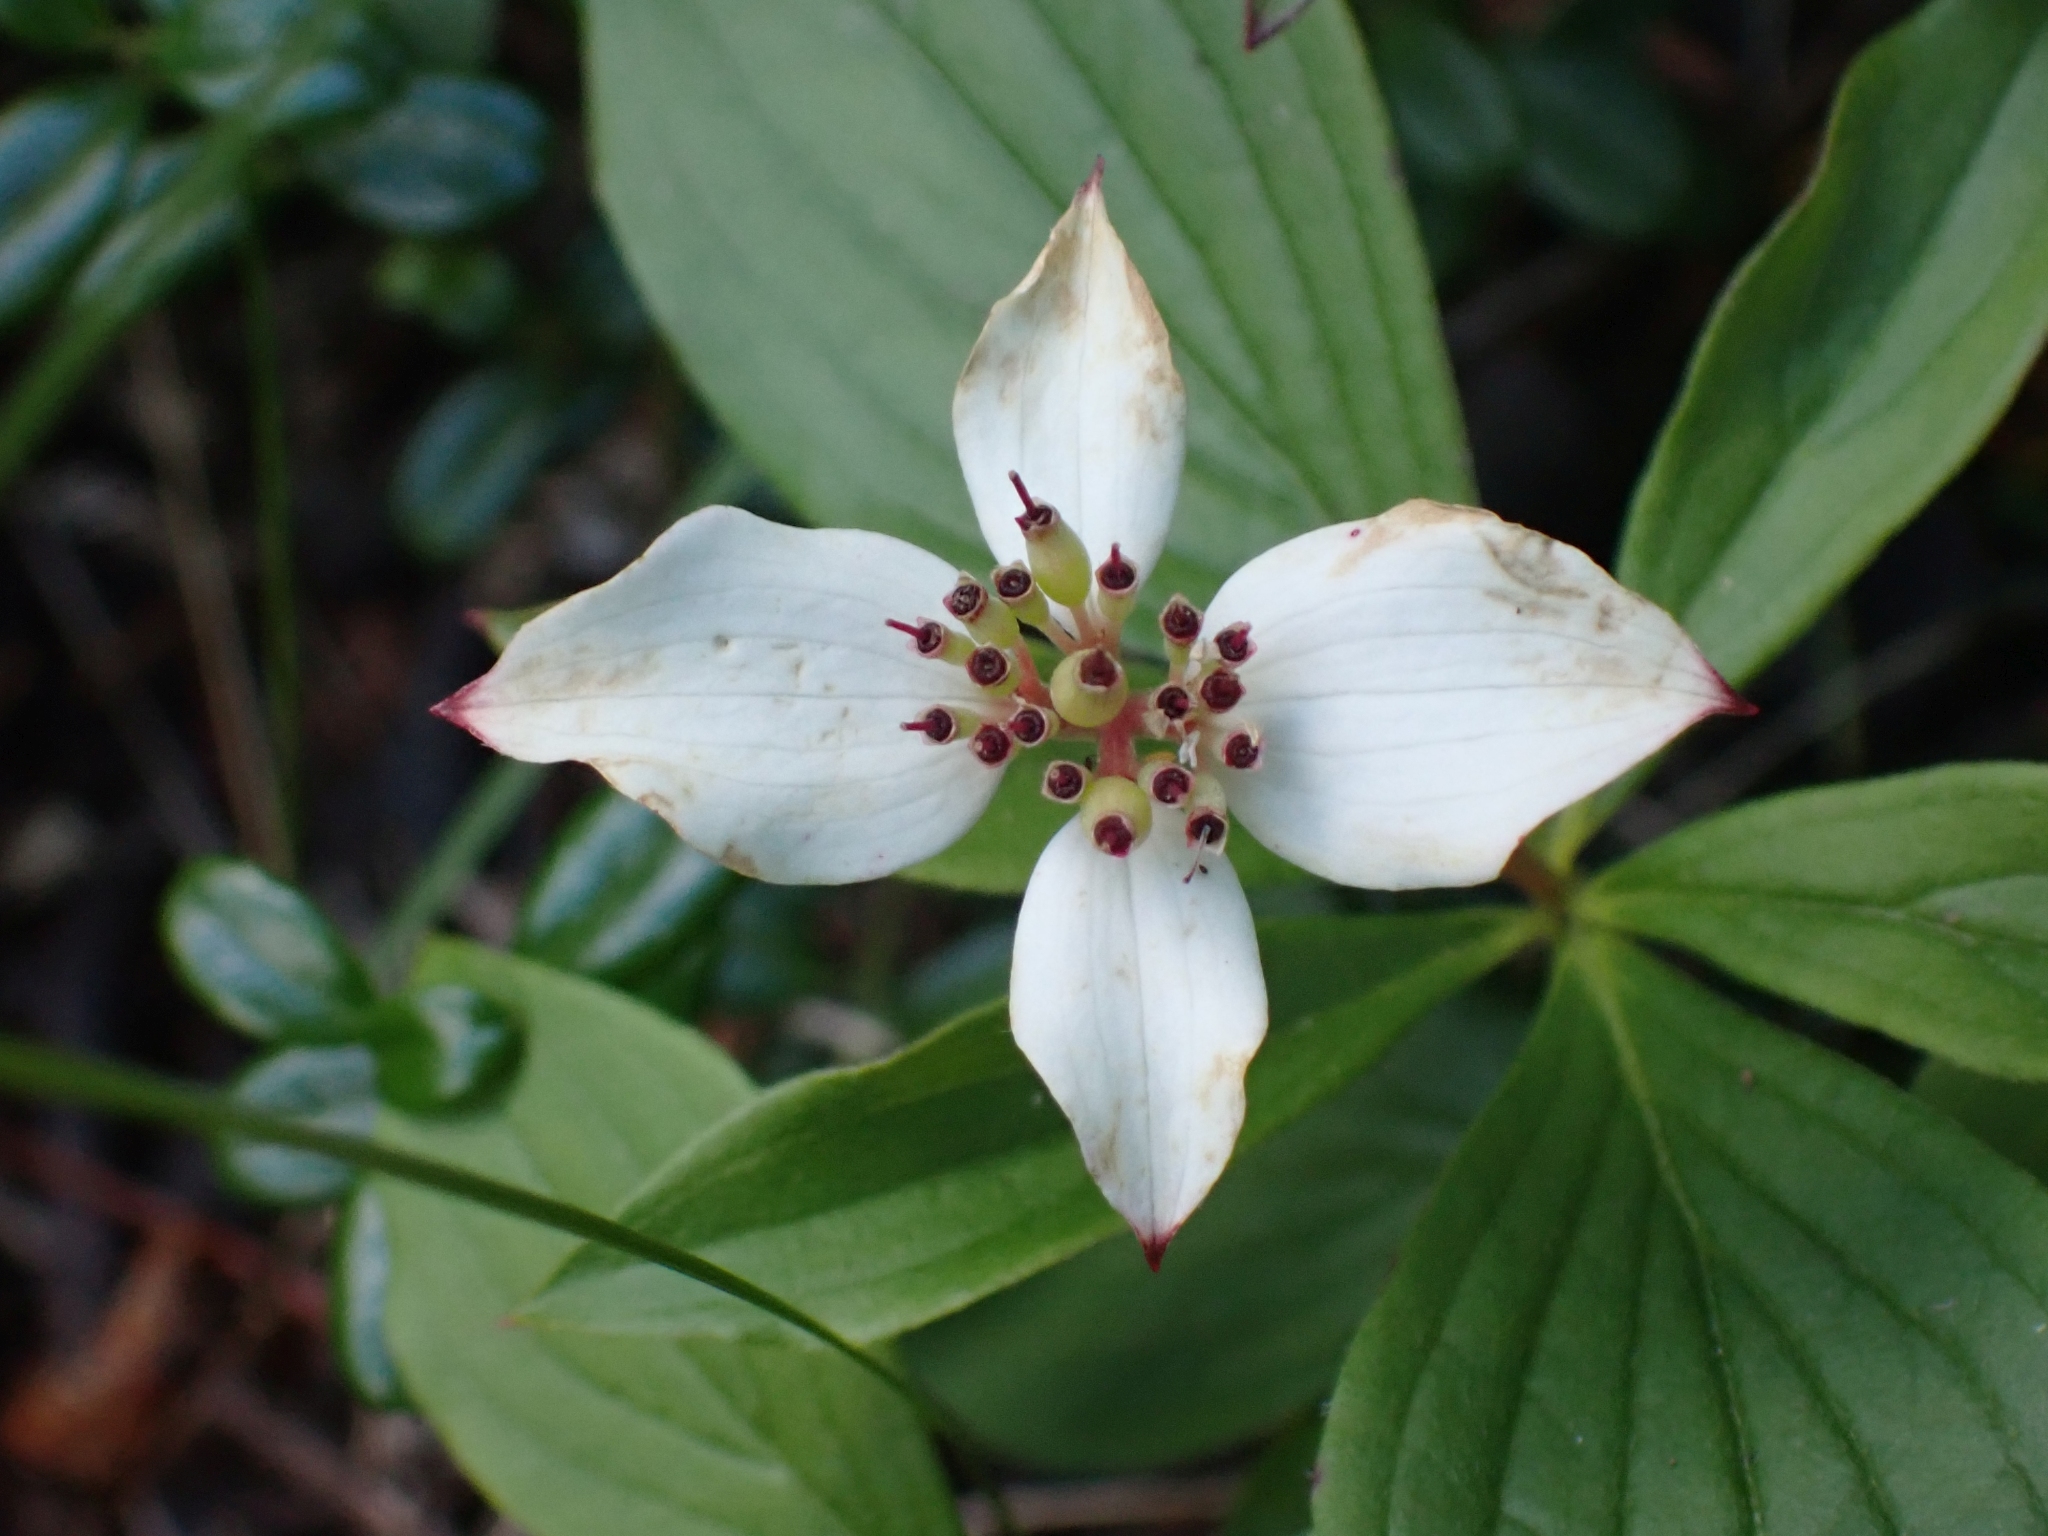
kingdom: Plantae
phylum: Tracheophyta
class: Magnoliopsida
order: Cornales
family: Cornaceae
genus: Cornus
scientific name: Cornus canadensis
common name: Creeping dogwood
